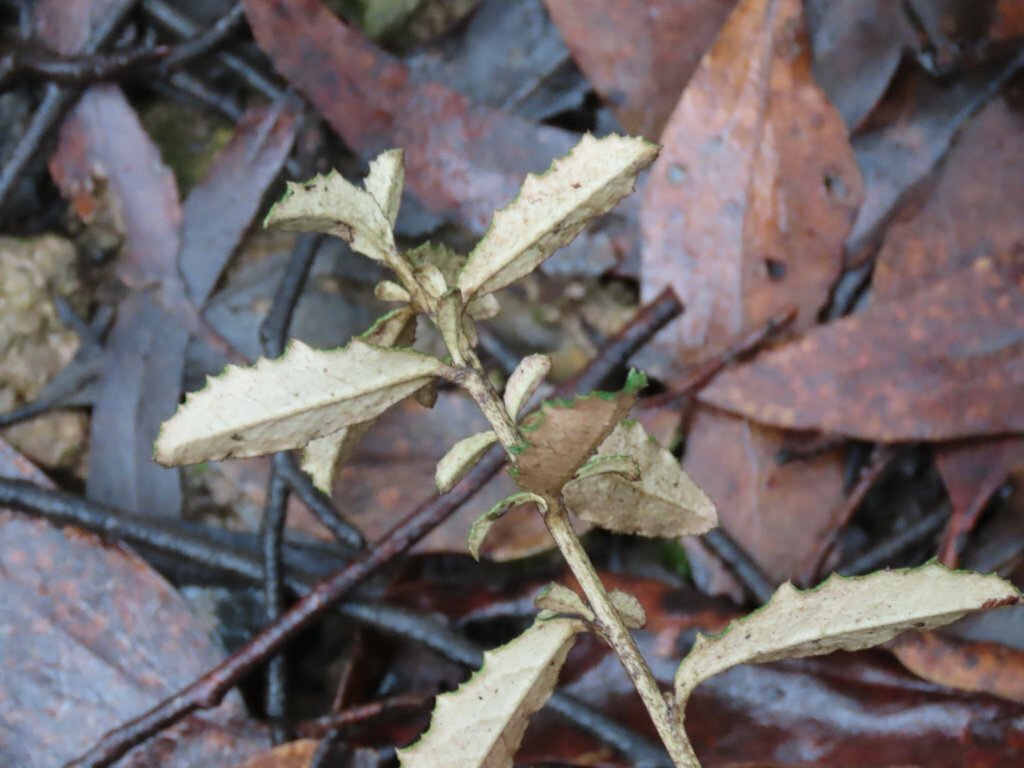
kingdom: Plantae
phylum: Tracheophyta
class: Magnoliopsida
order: Asterales
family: Asteraceae
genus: Olearia
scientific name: Olearia erubescens
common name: Moth daisybush
